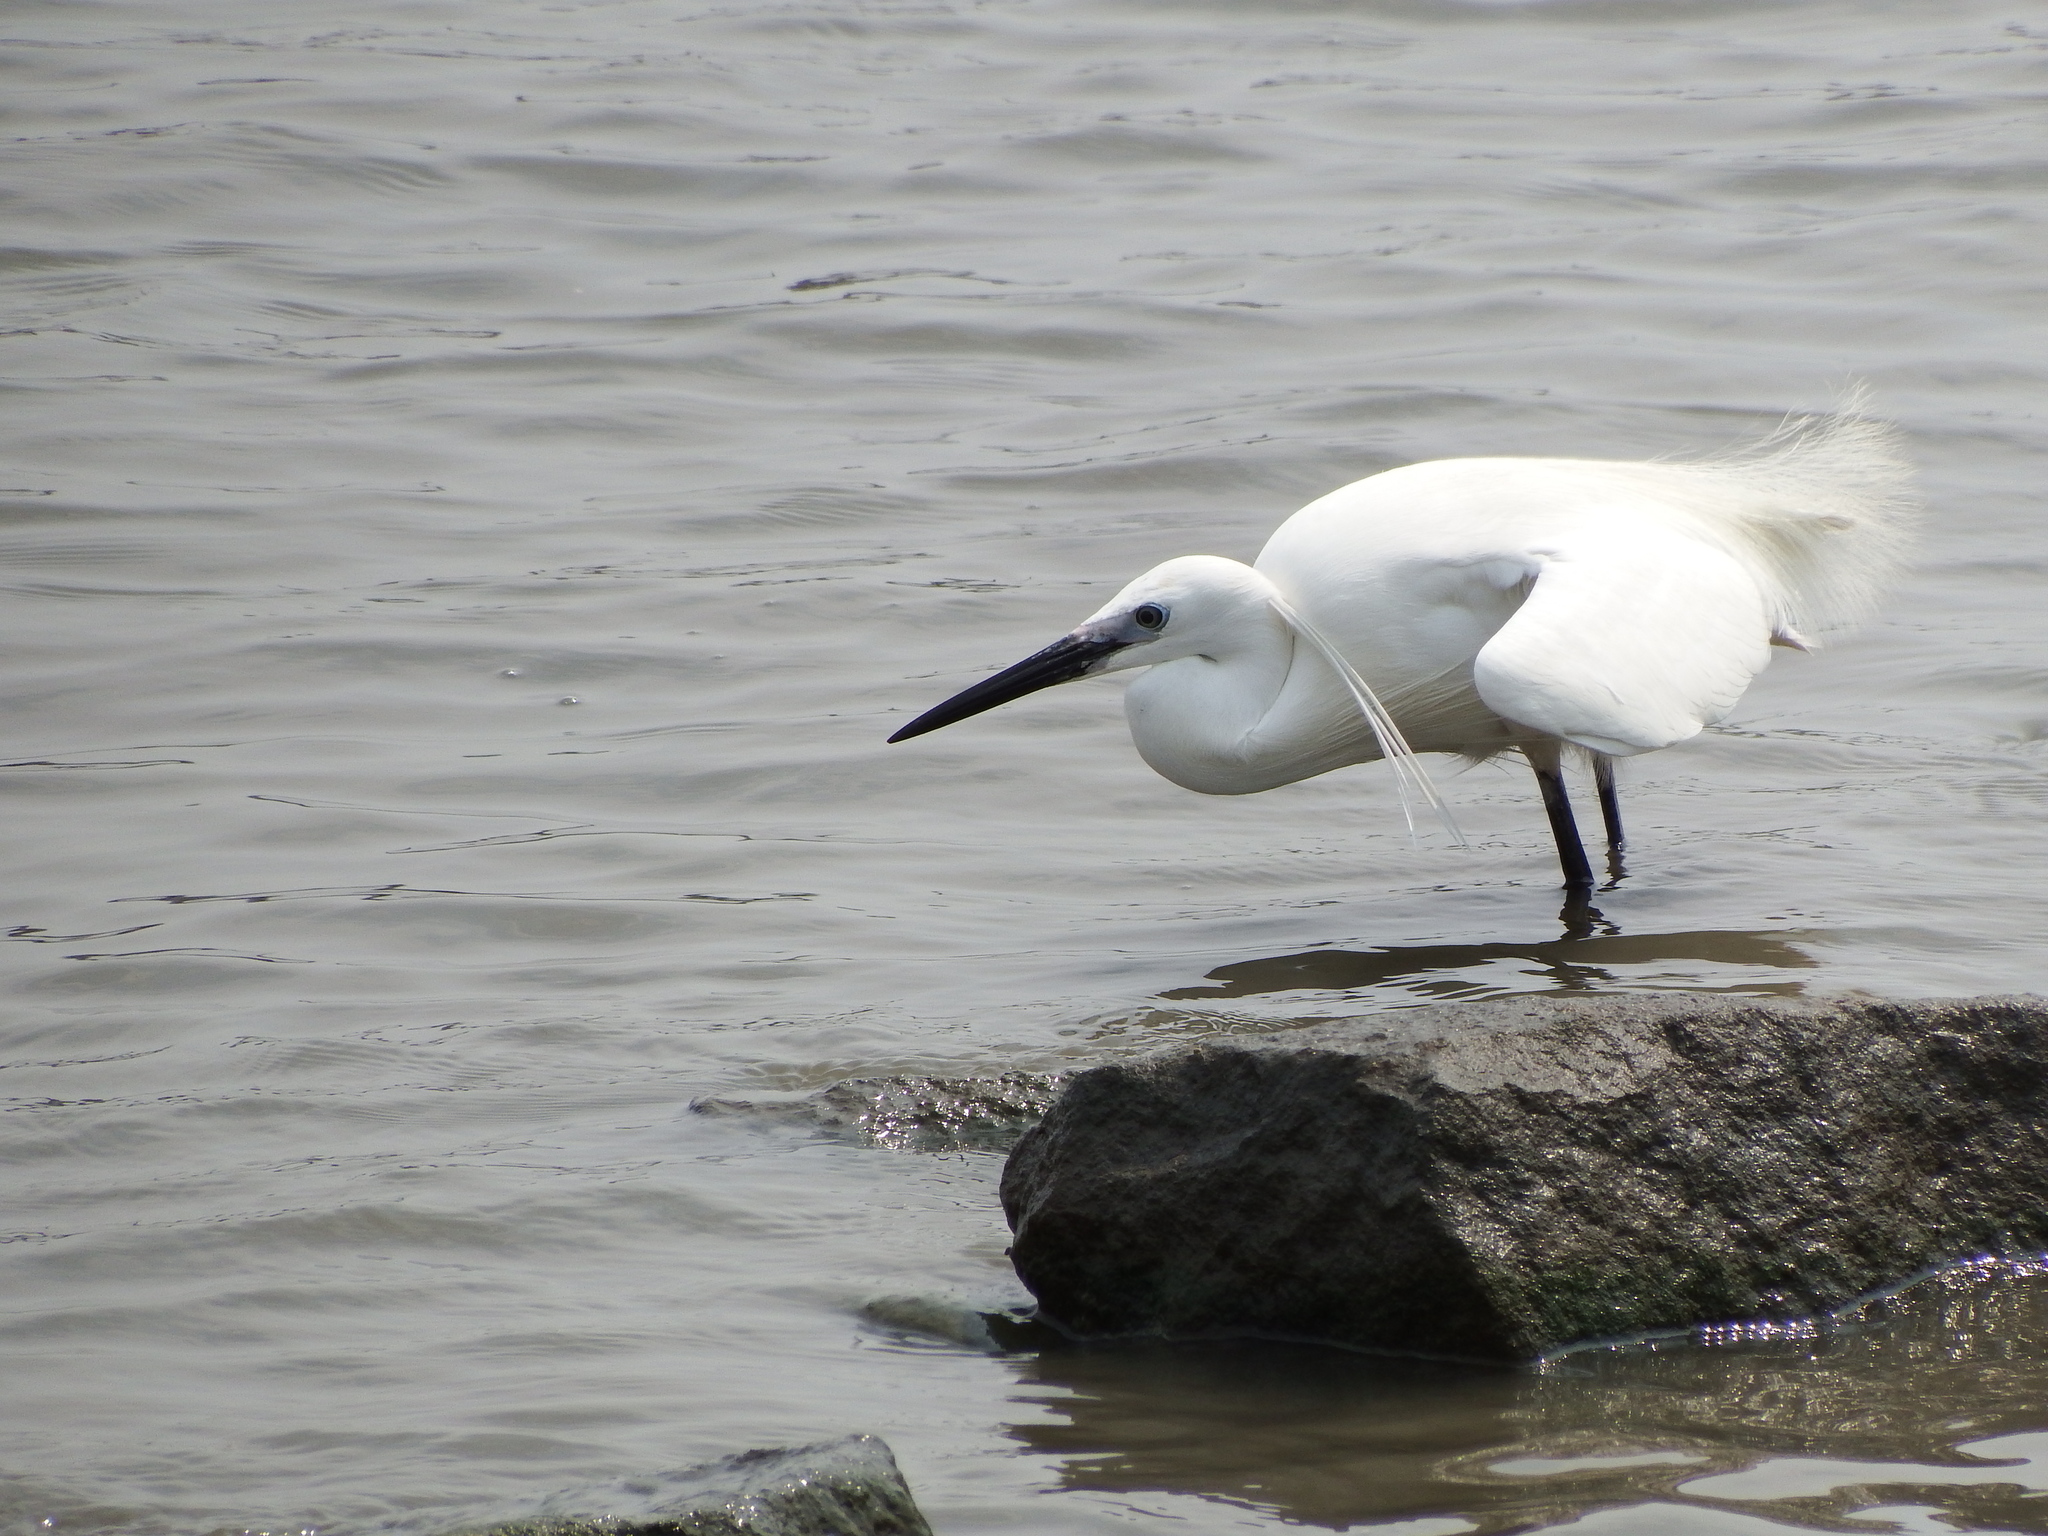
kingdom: Animalia
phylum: Chordata
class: Aves
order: Pelecaniformes
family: Ardeidae
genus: Egretta
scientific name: Egretta garzetta
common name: Little egret
